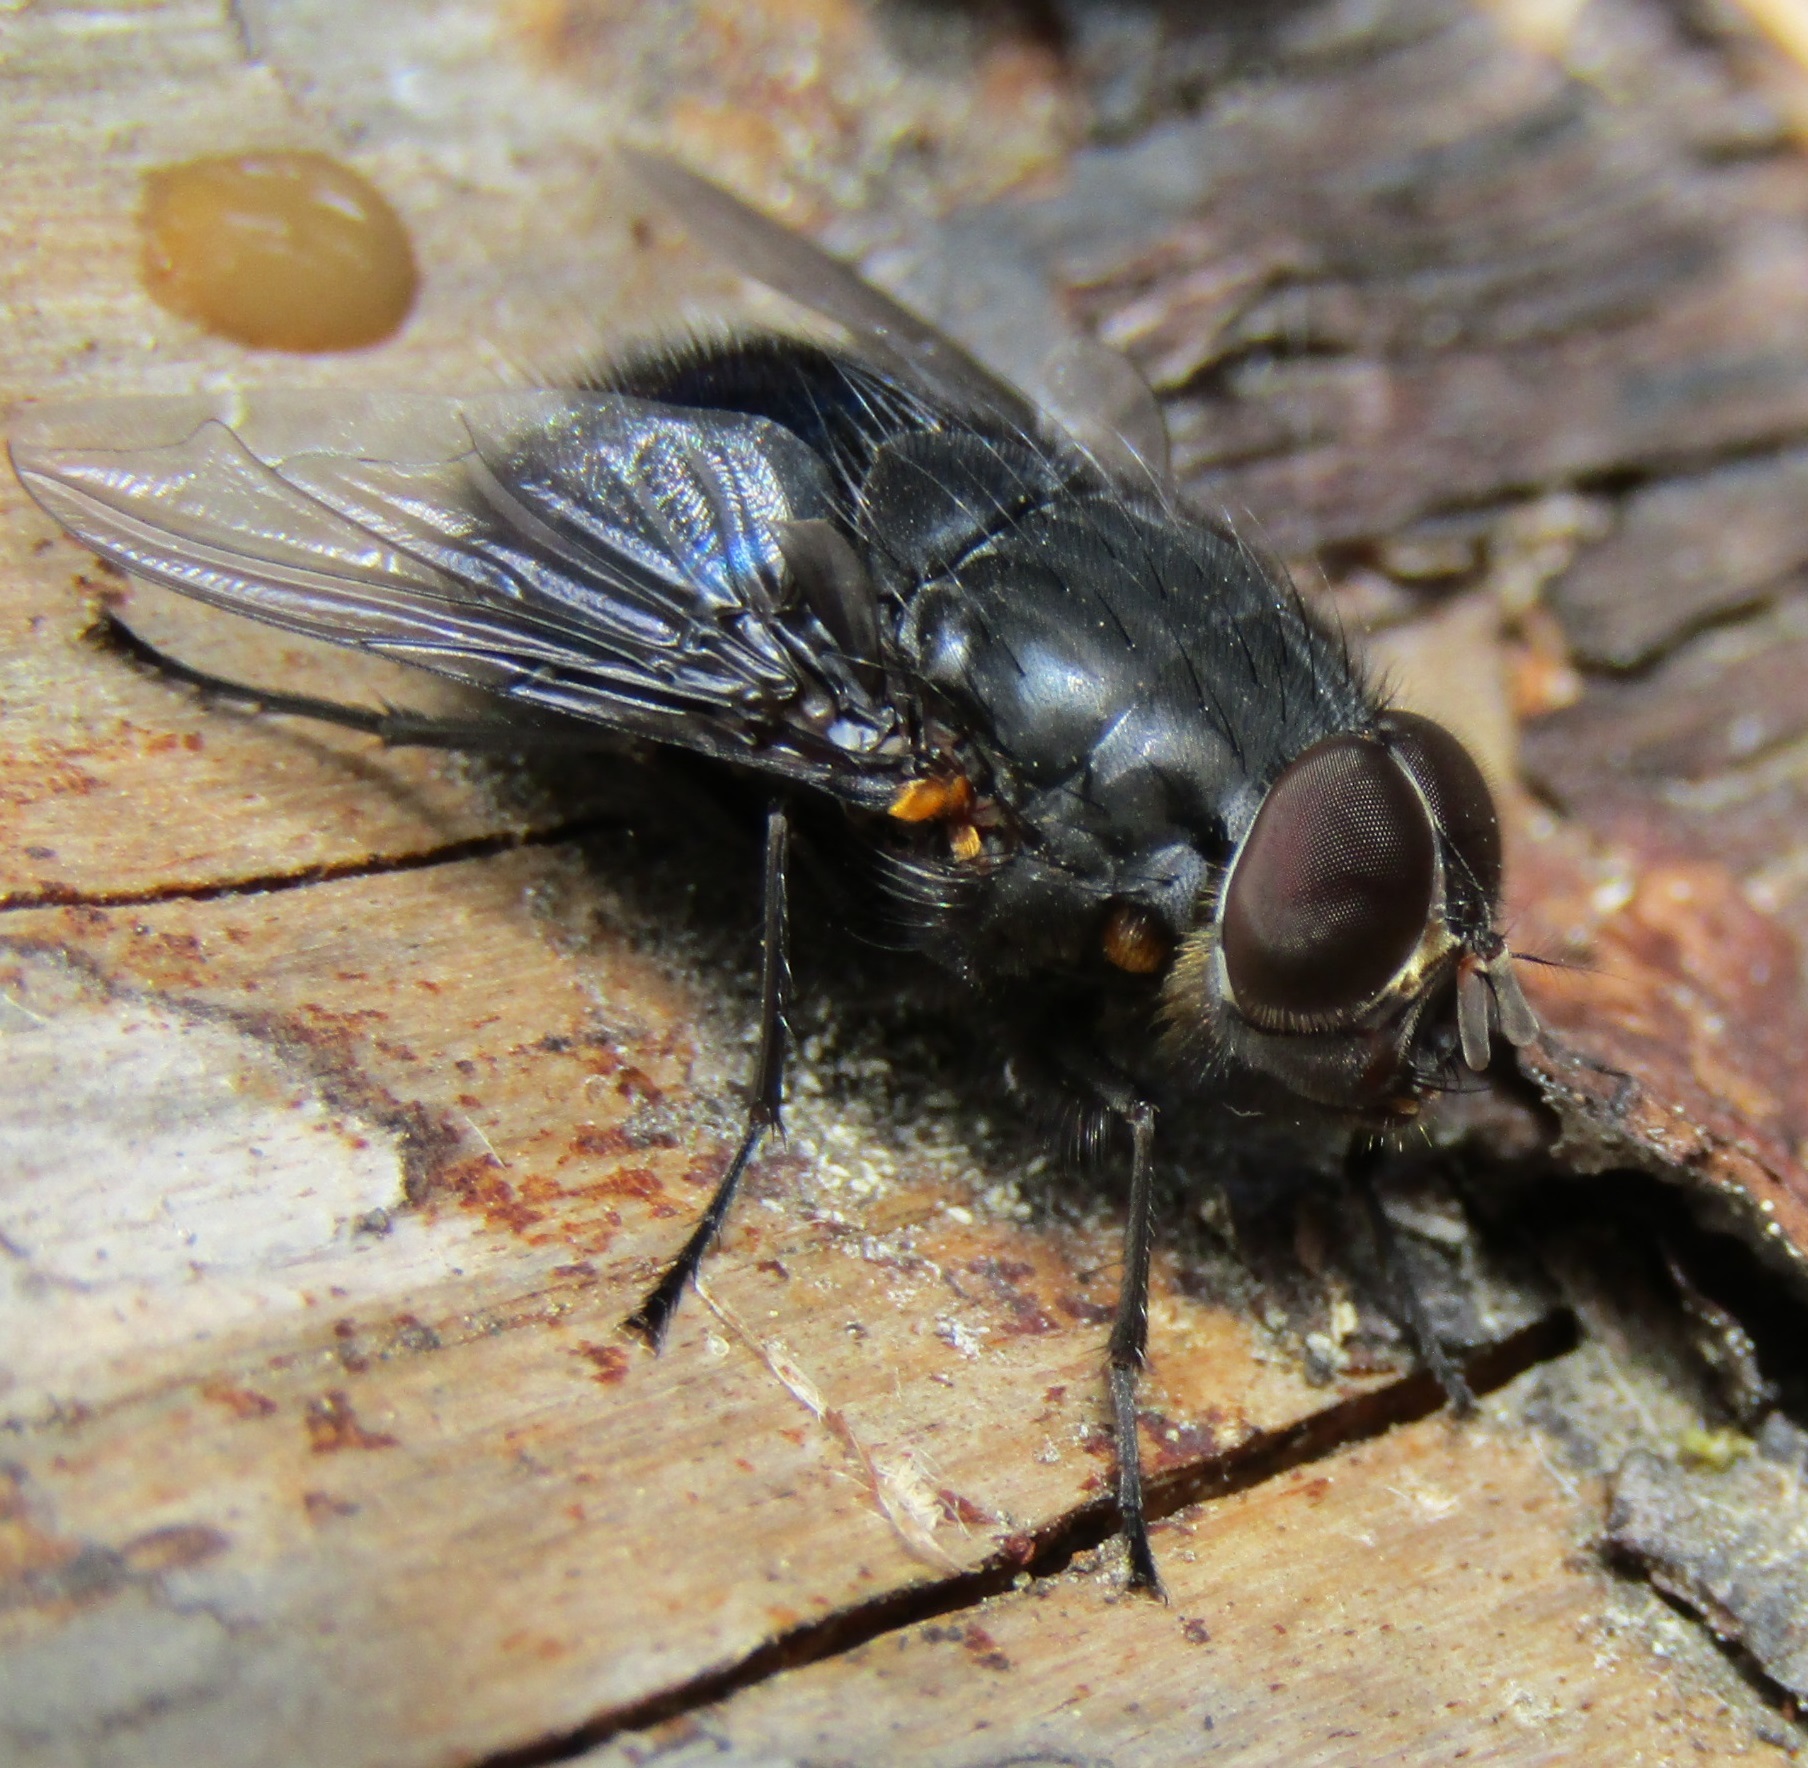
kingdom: Animalia
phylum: Arthropoda
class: Insecta
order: Diptera
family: Calliphoridae
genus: Calliphora
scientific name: Calliphora quadrimaculata
